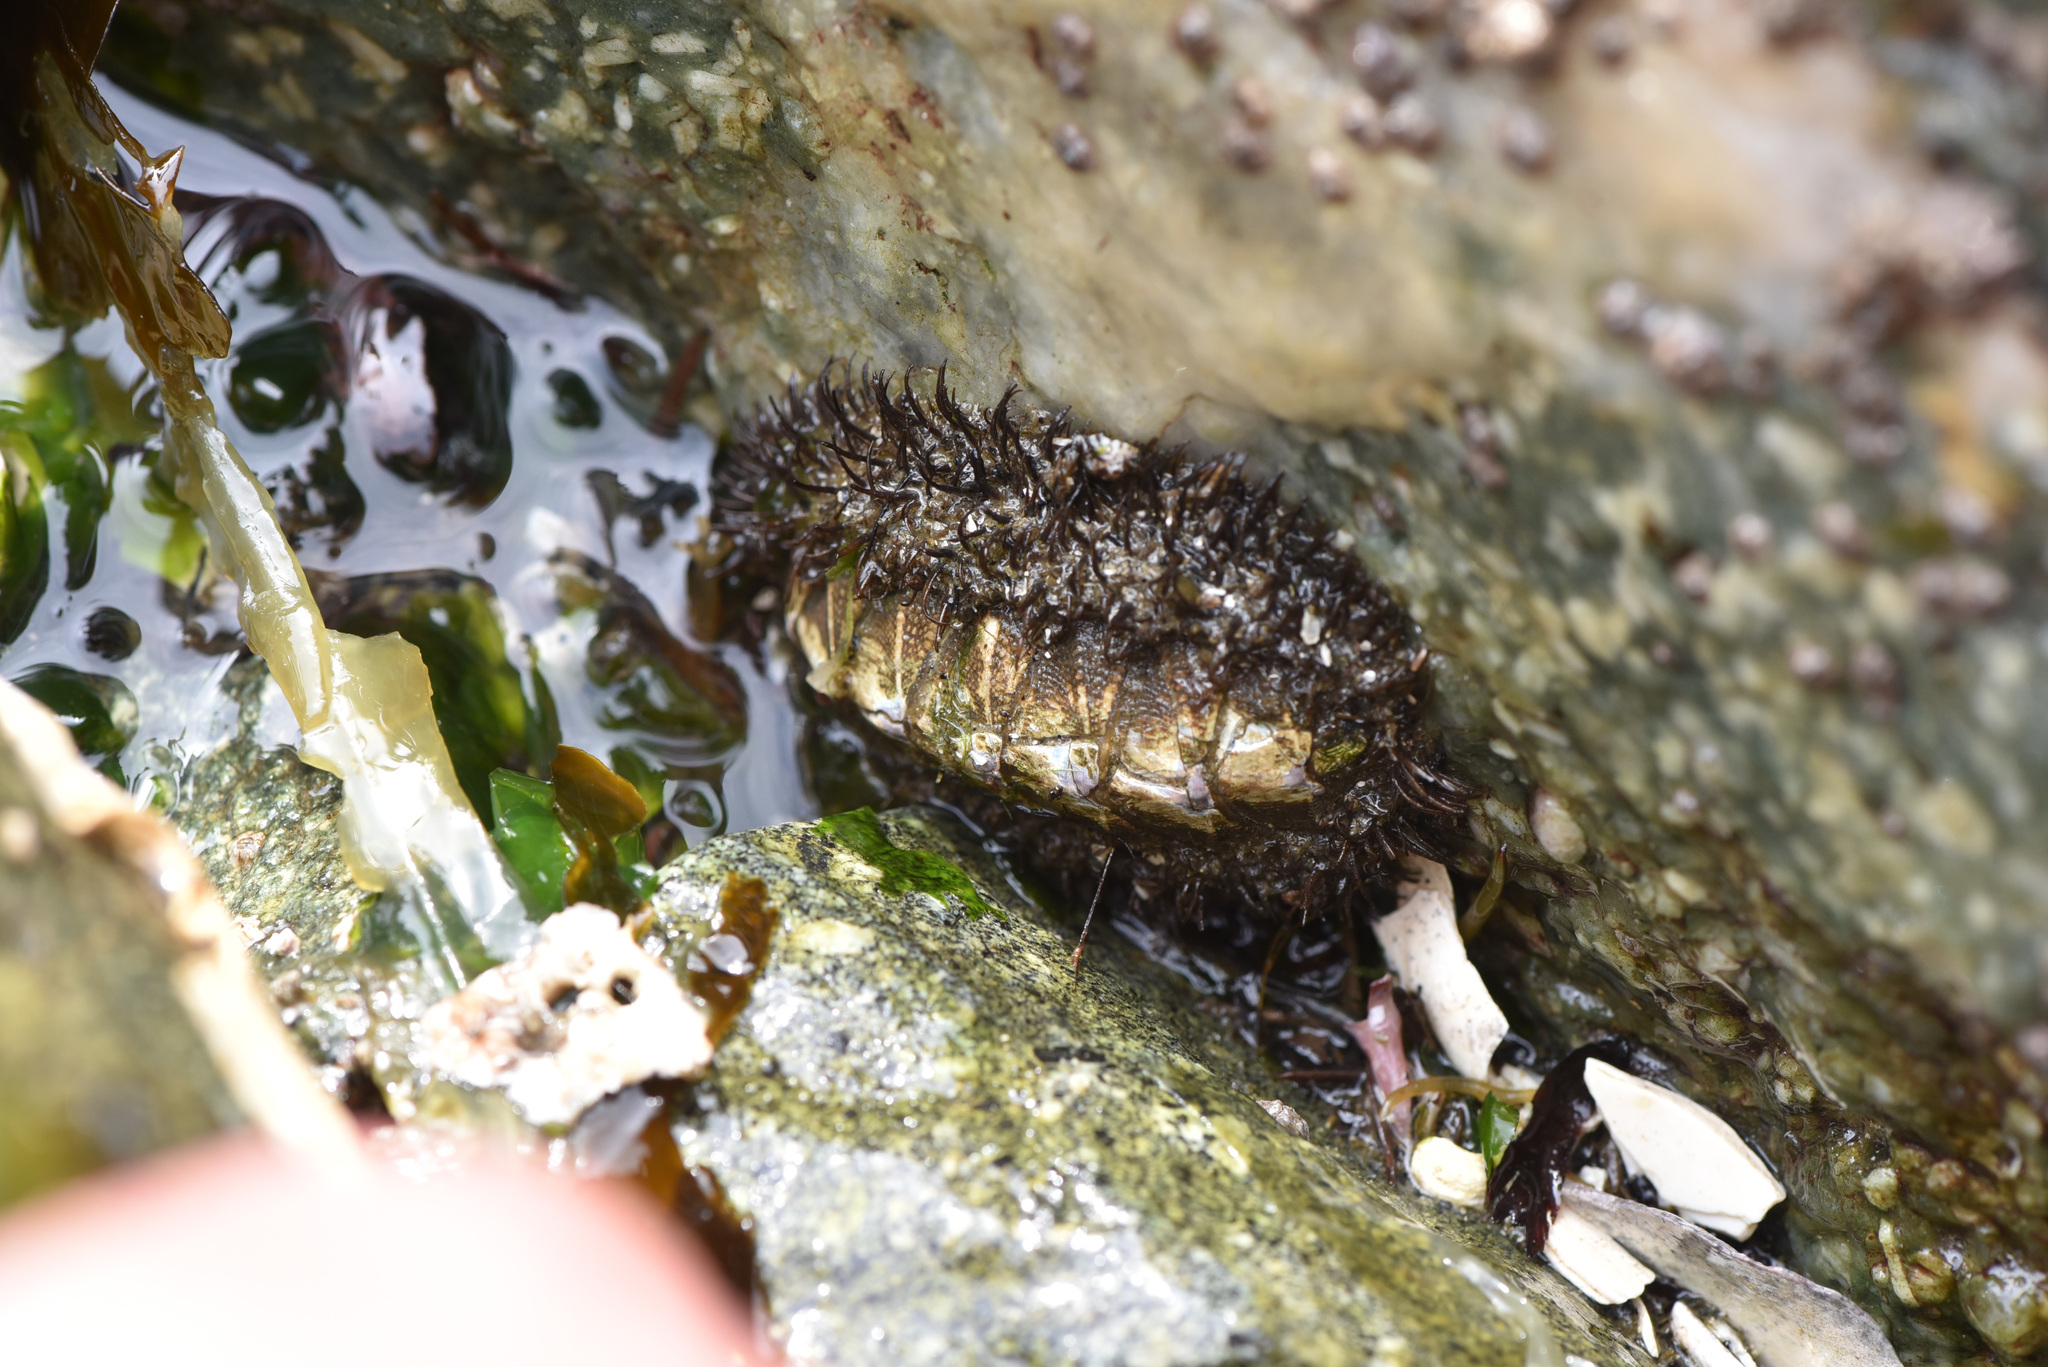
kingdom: Animalia
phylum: Mollusca
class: Polyplacophora
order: Chitonida
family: Mopaliidae
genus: Mopalia
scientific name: Mopalia muscosa
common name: Mossy chiton
